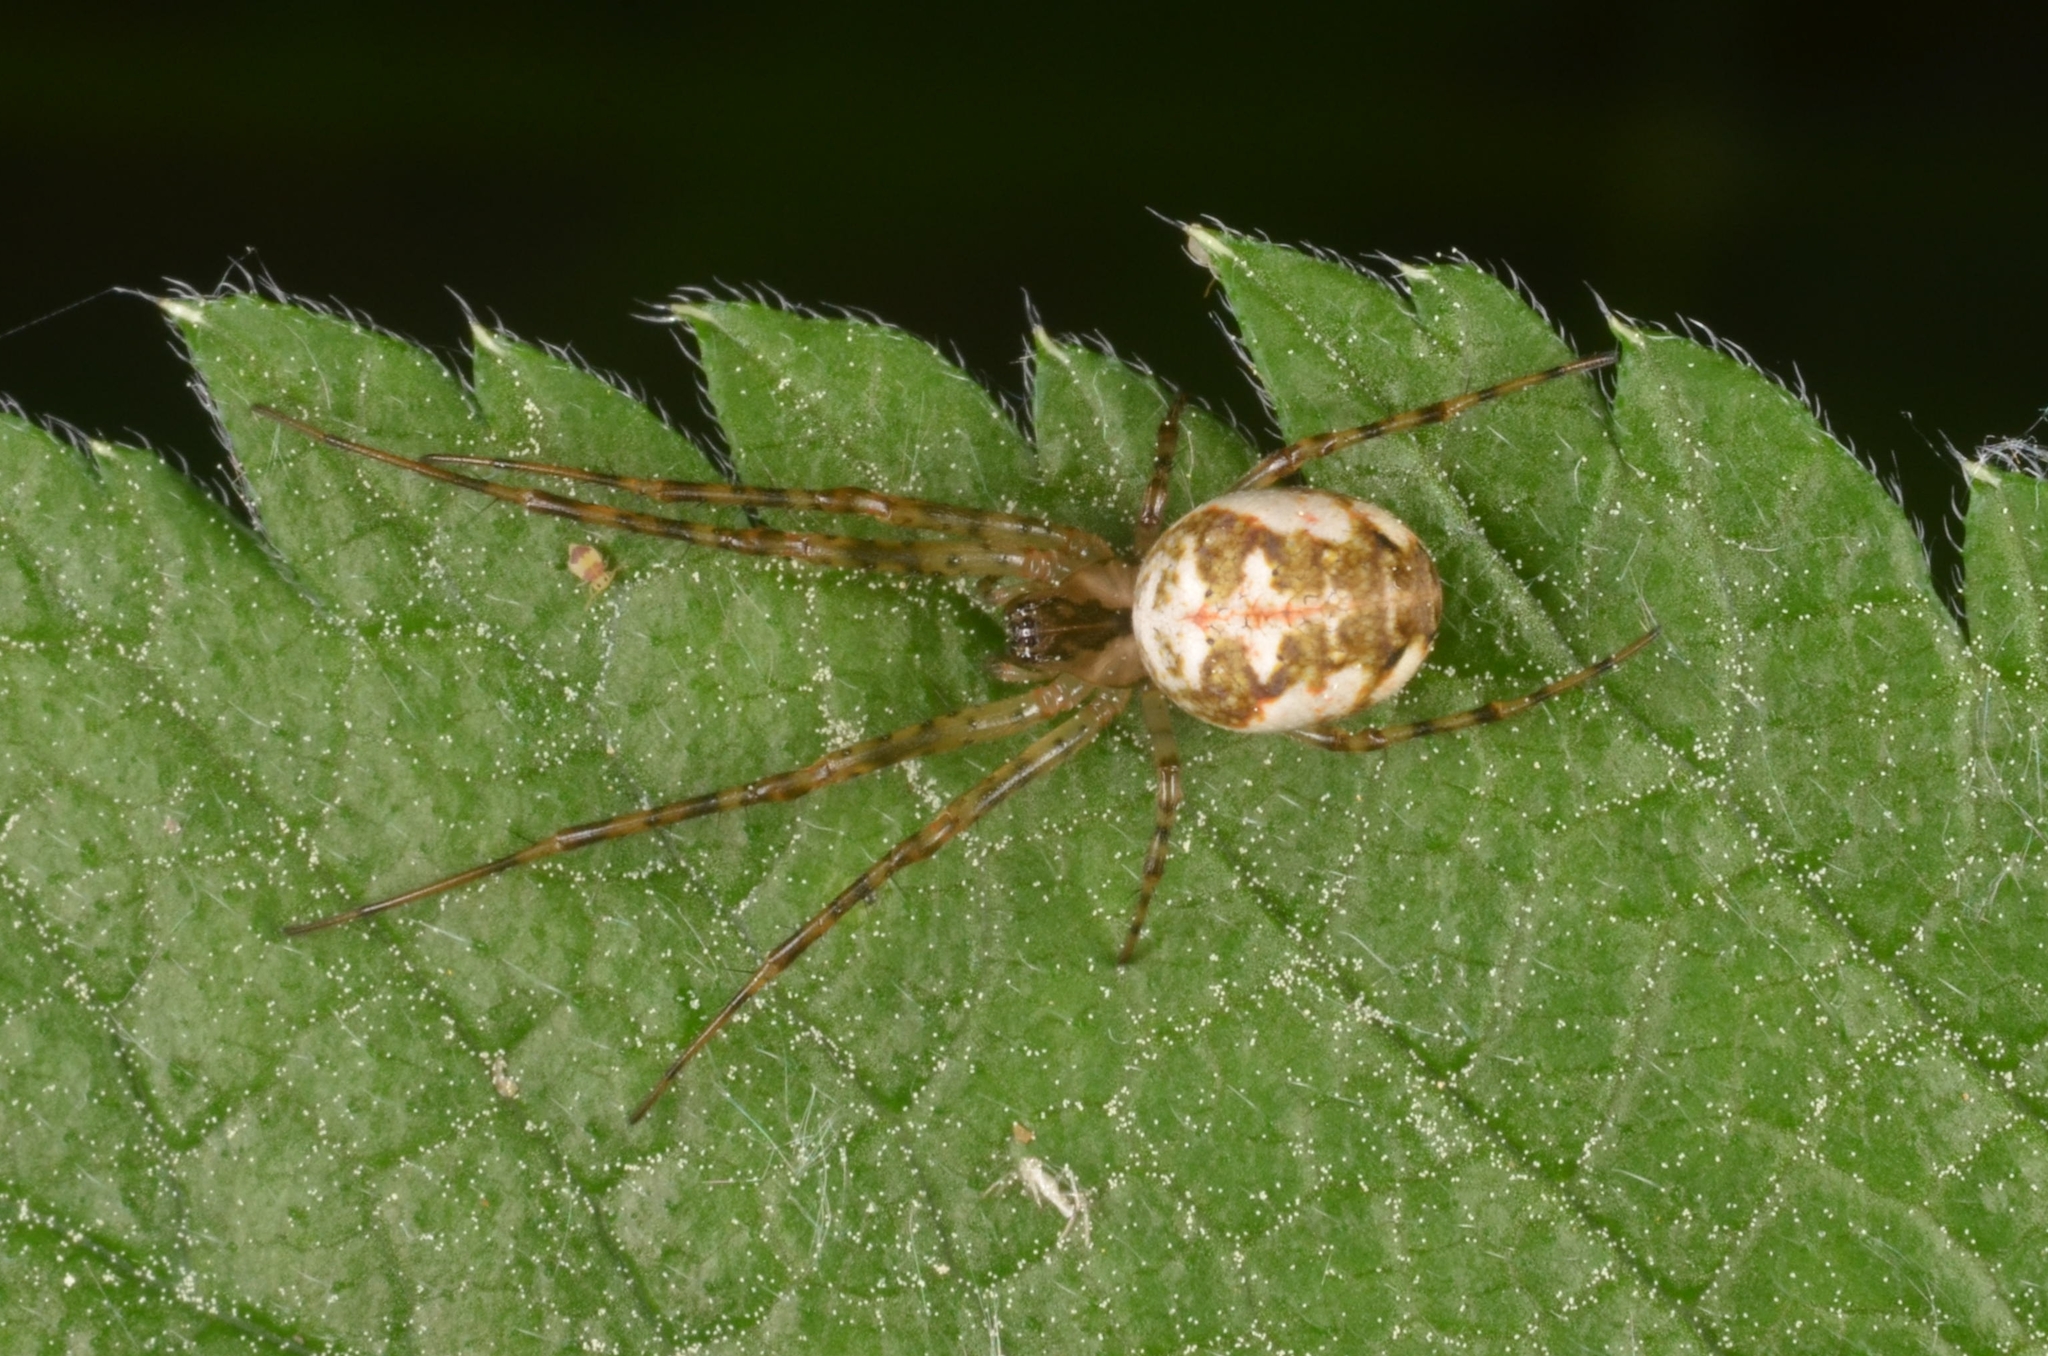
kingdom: Animalia
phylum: Arthropoda
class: Arachnida
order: Araneae
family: Tetragnathidae
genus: Metellina
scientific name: Metellina
